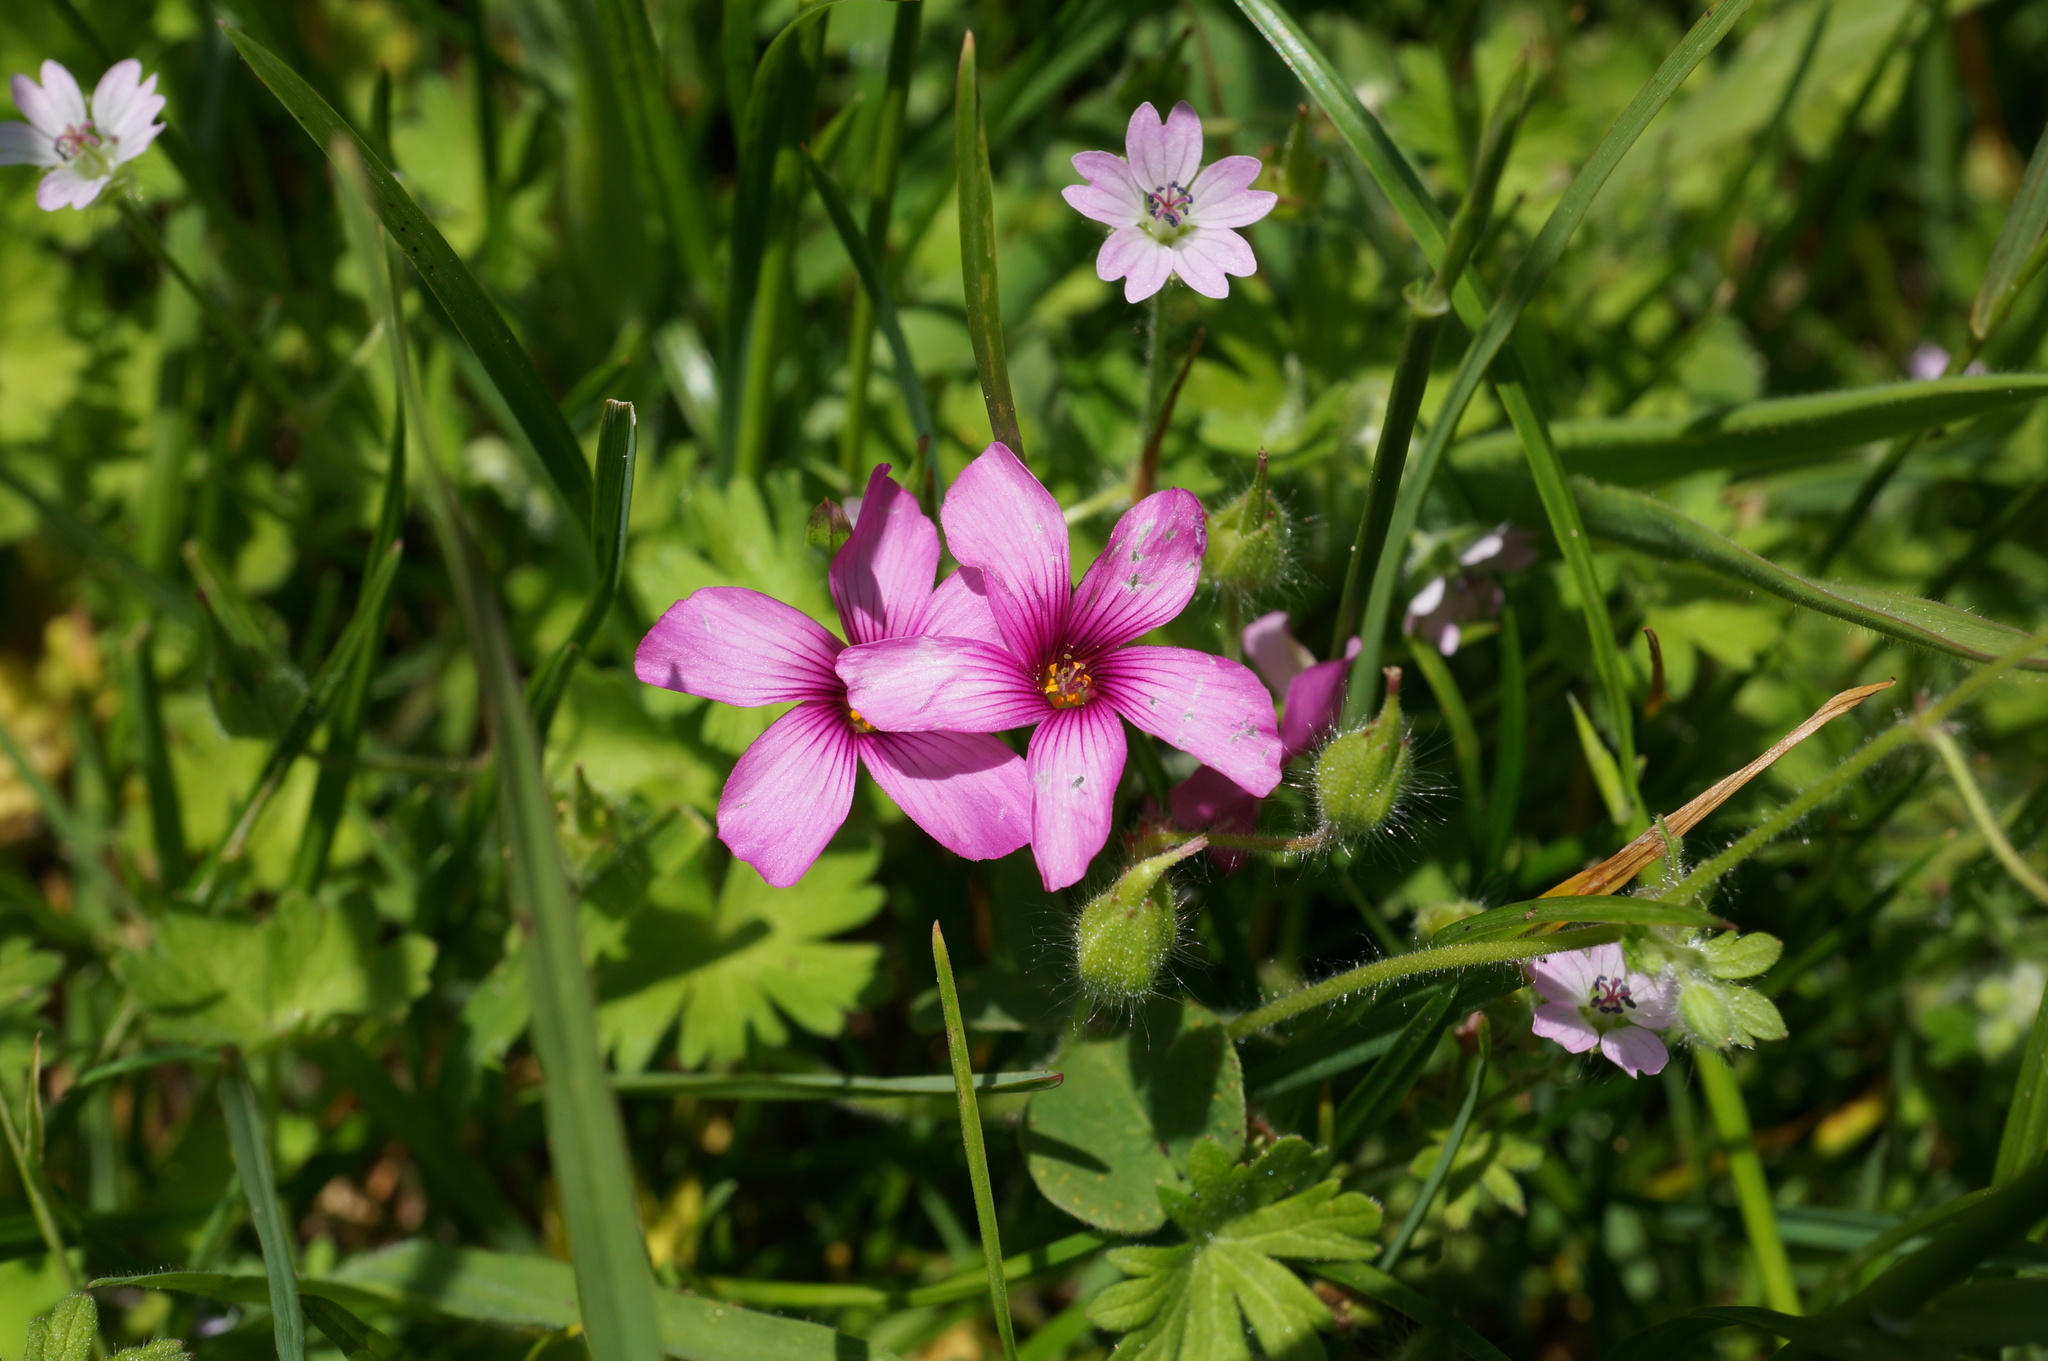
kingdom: Plantae
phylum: Tracheophyta
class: Magnoliopsida
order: Oxalidales
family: Oxalidaceae
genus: Oxalis
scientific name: Oxalis articulata
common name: Pink-sorrel
